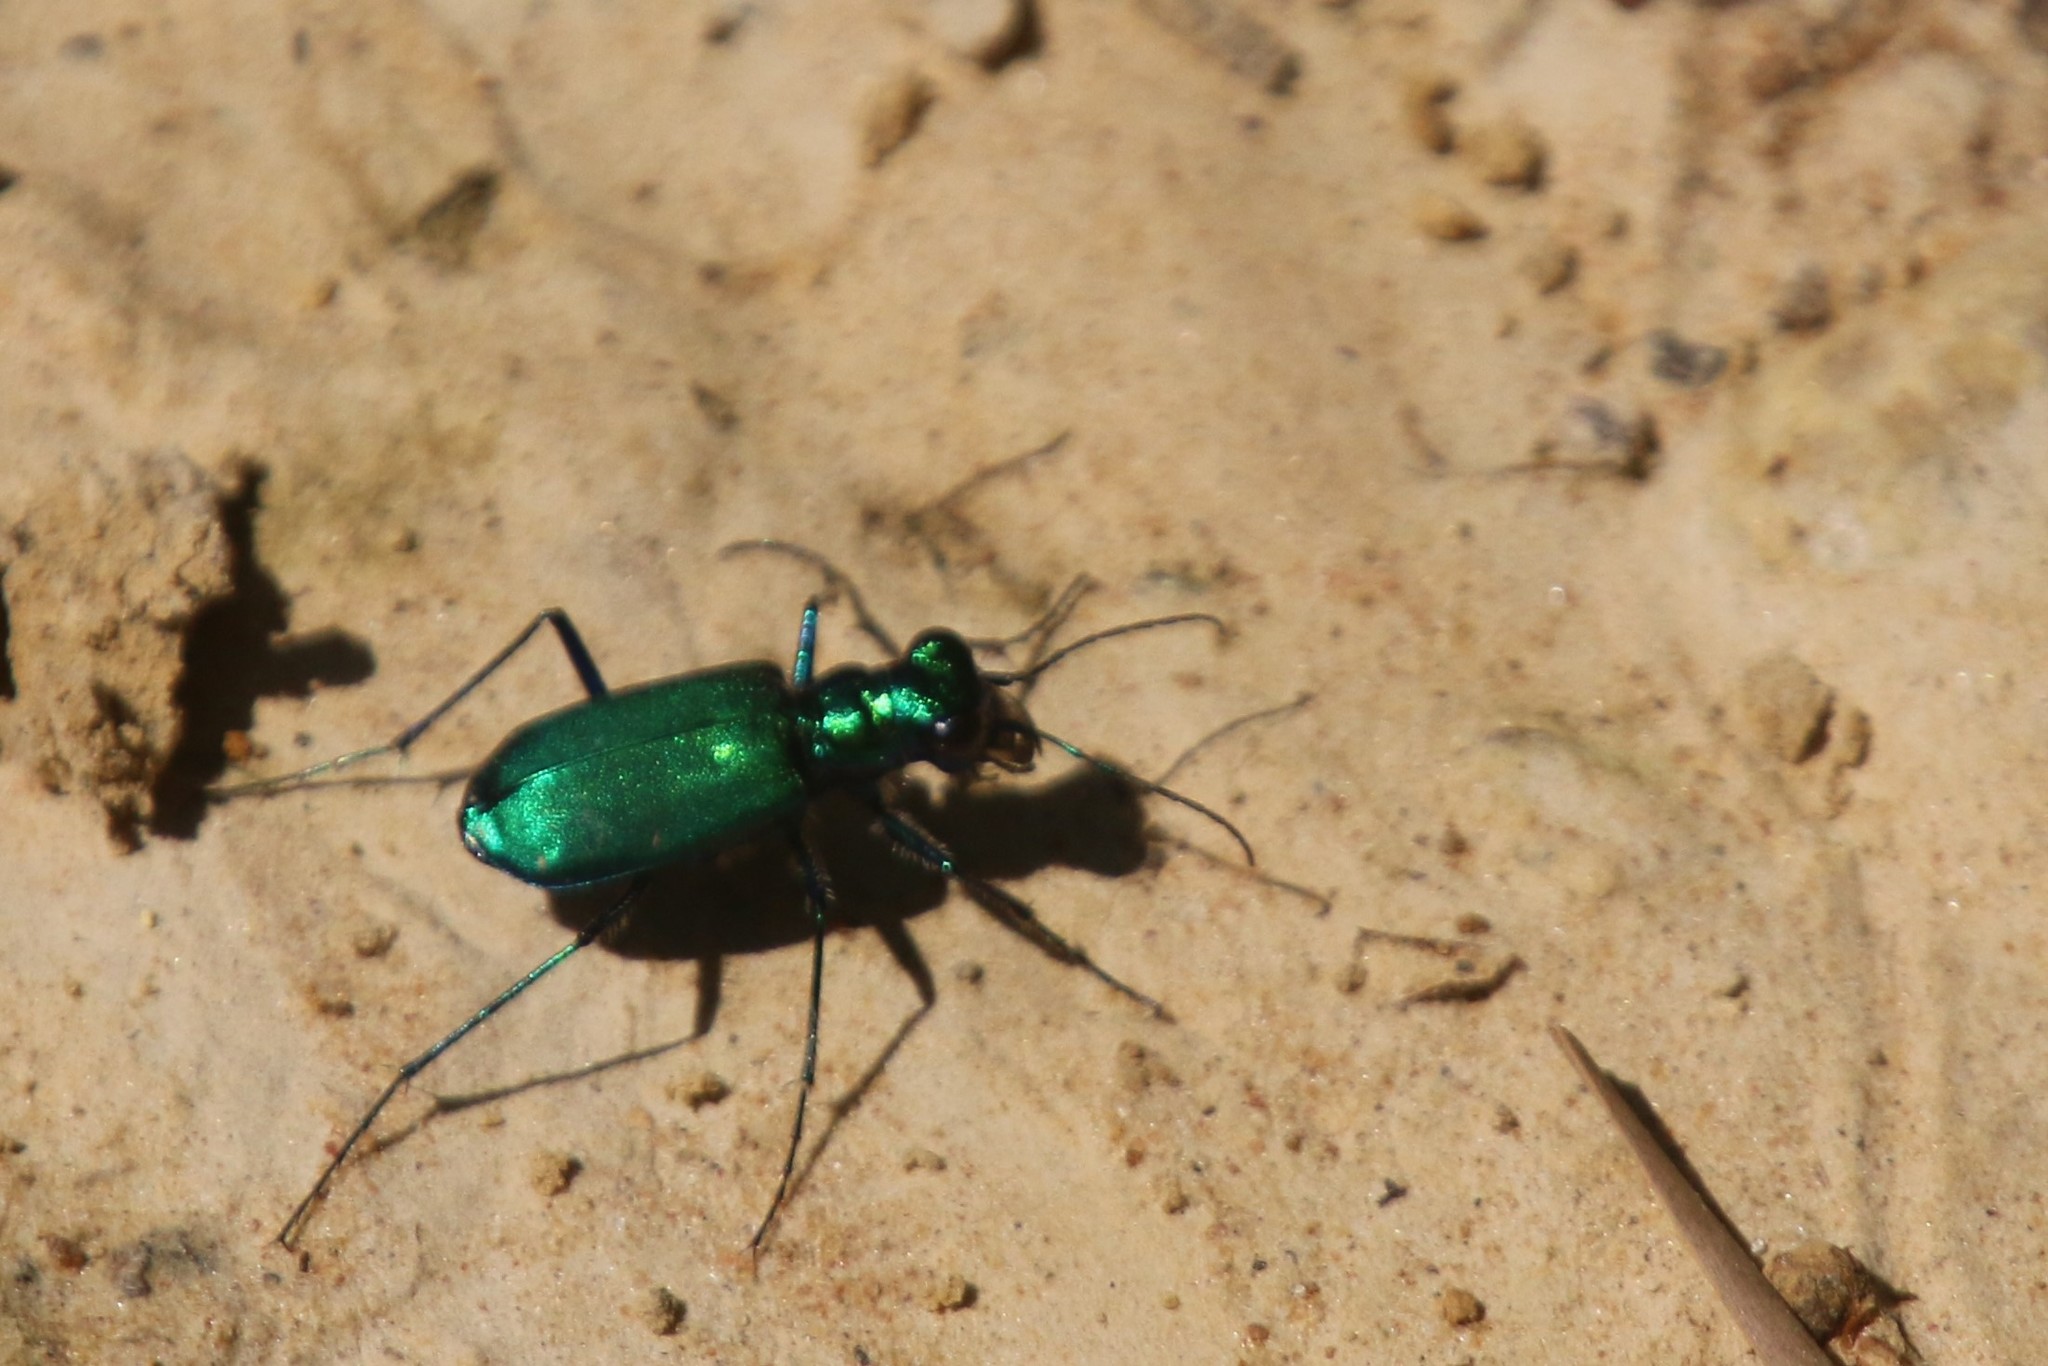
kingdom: Animalia
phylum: Arthropoda
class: Insecta
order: Coleoptera
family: Carabidae
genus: Cicindela
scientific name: Cicindela sexguttata
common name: Six-spotted tiger beetle
